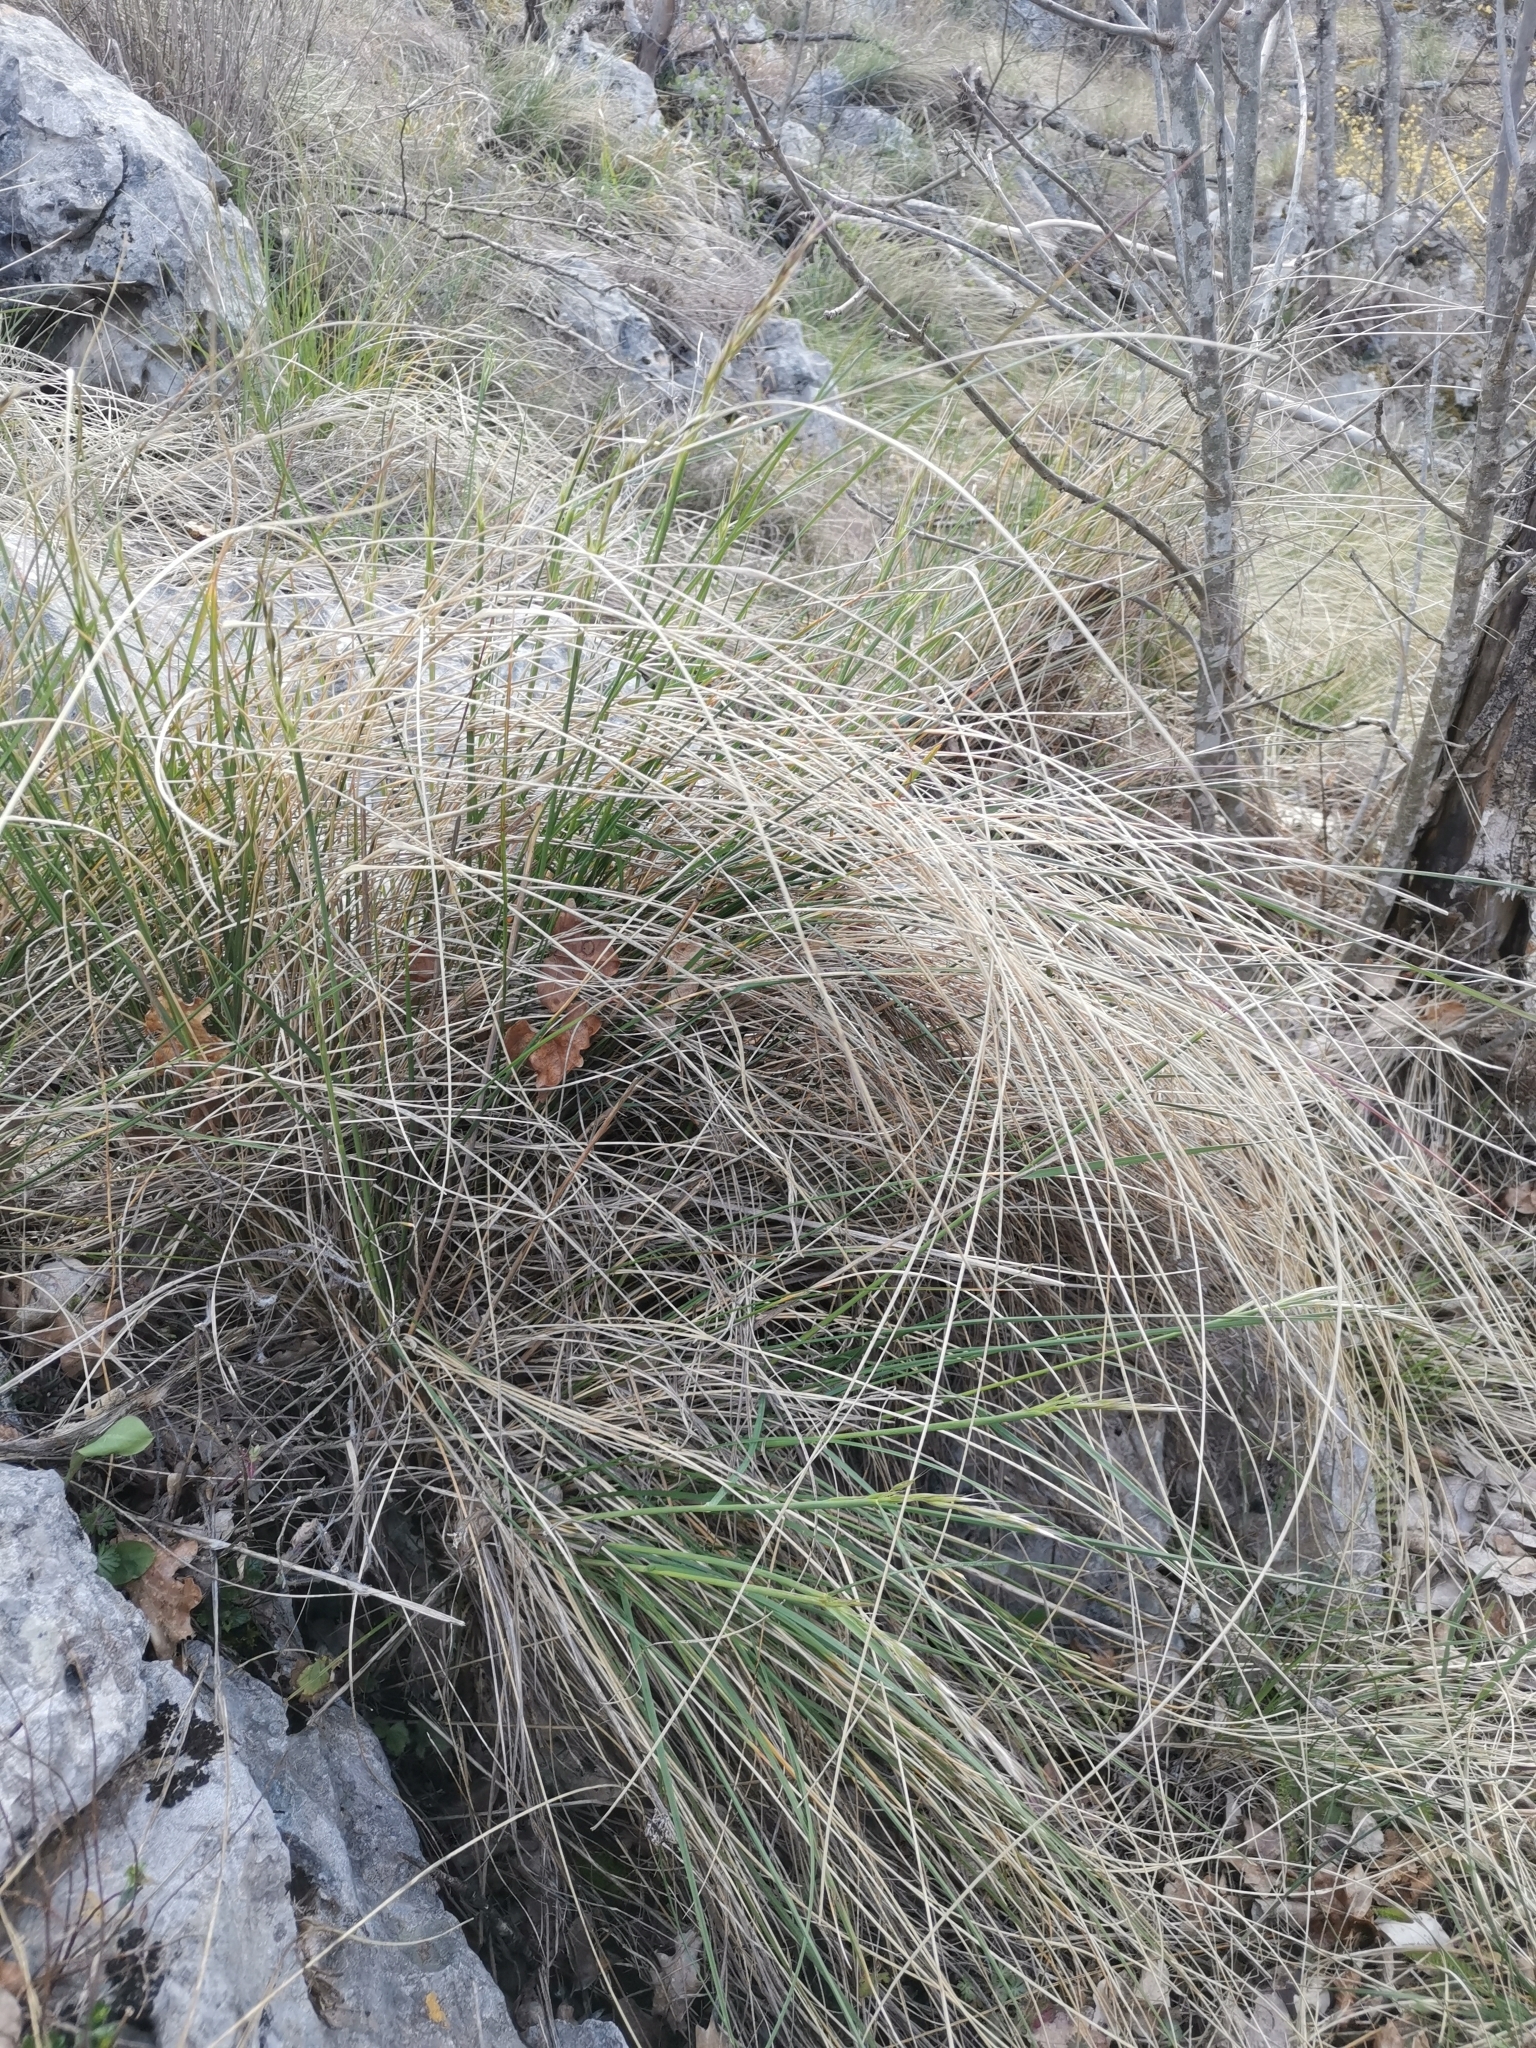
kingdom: Plantae
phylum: Tracheophyta
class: Liliopsida
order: Poales
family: Poaceae
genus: Helictotrichon
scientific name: Helictotrichon convolutum
